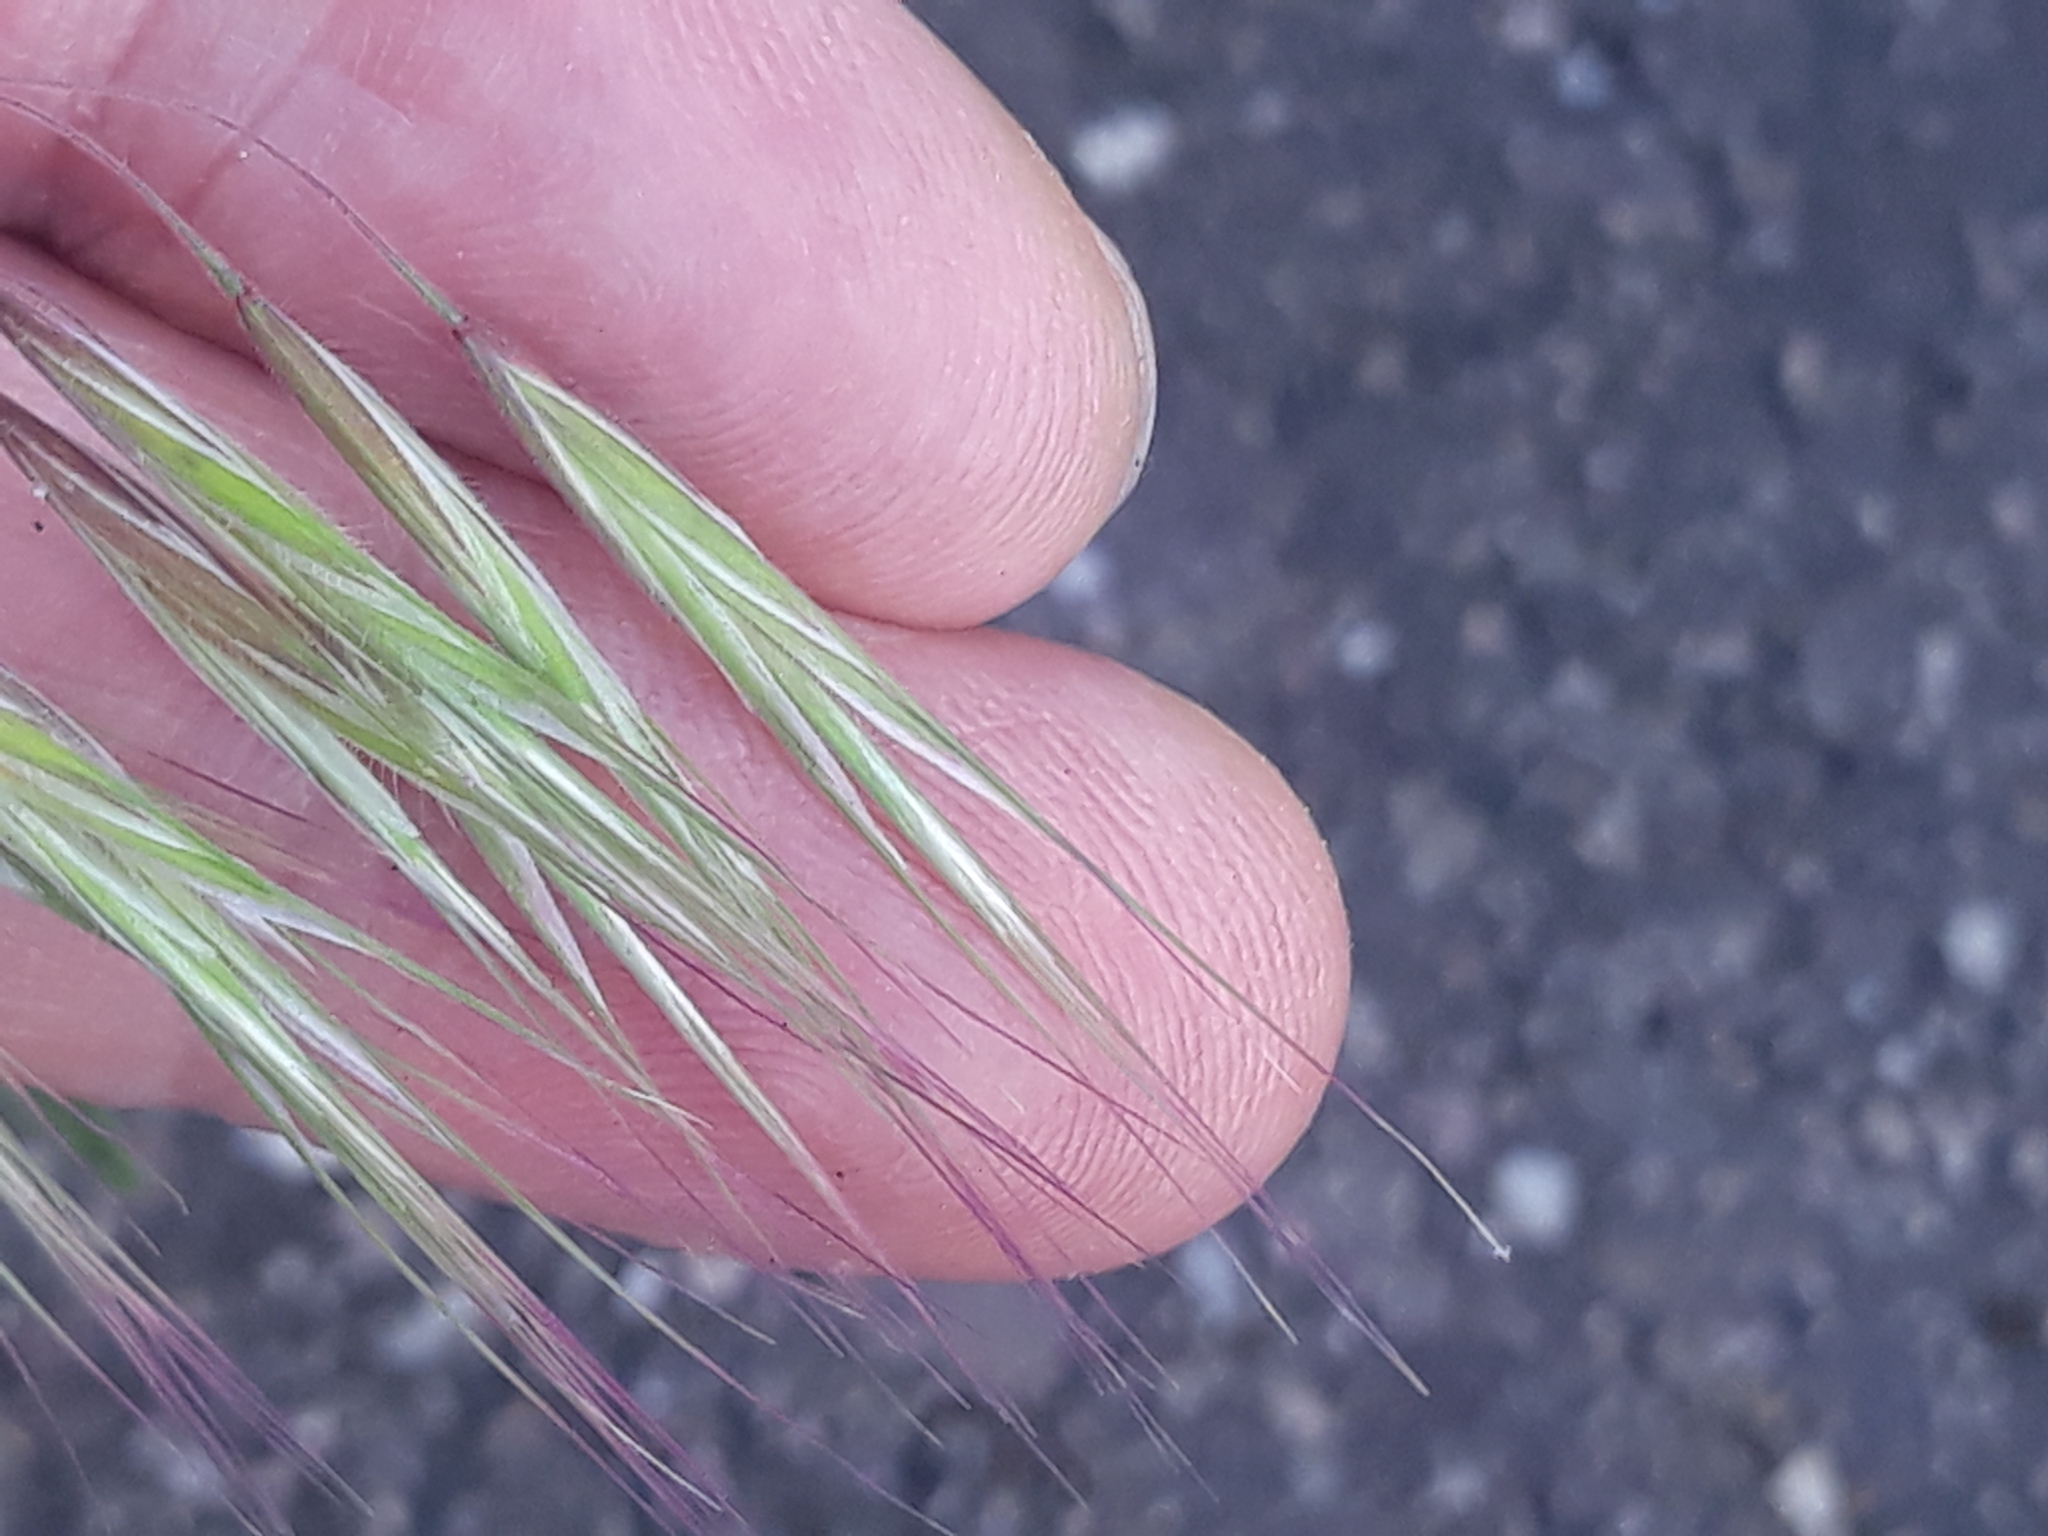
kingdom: Plantae
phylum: Tracheophyta
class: Liliopsida
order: Poales
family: Poaceae
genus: Bromus
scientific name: Bromus tectorum
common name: Cheatgrass
